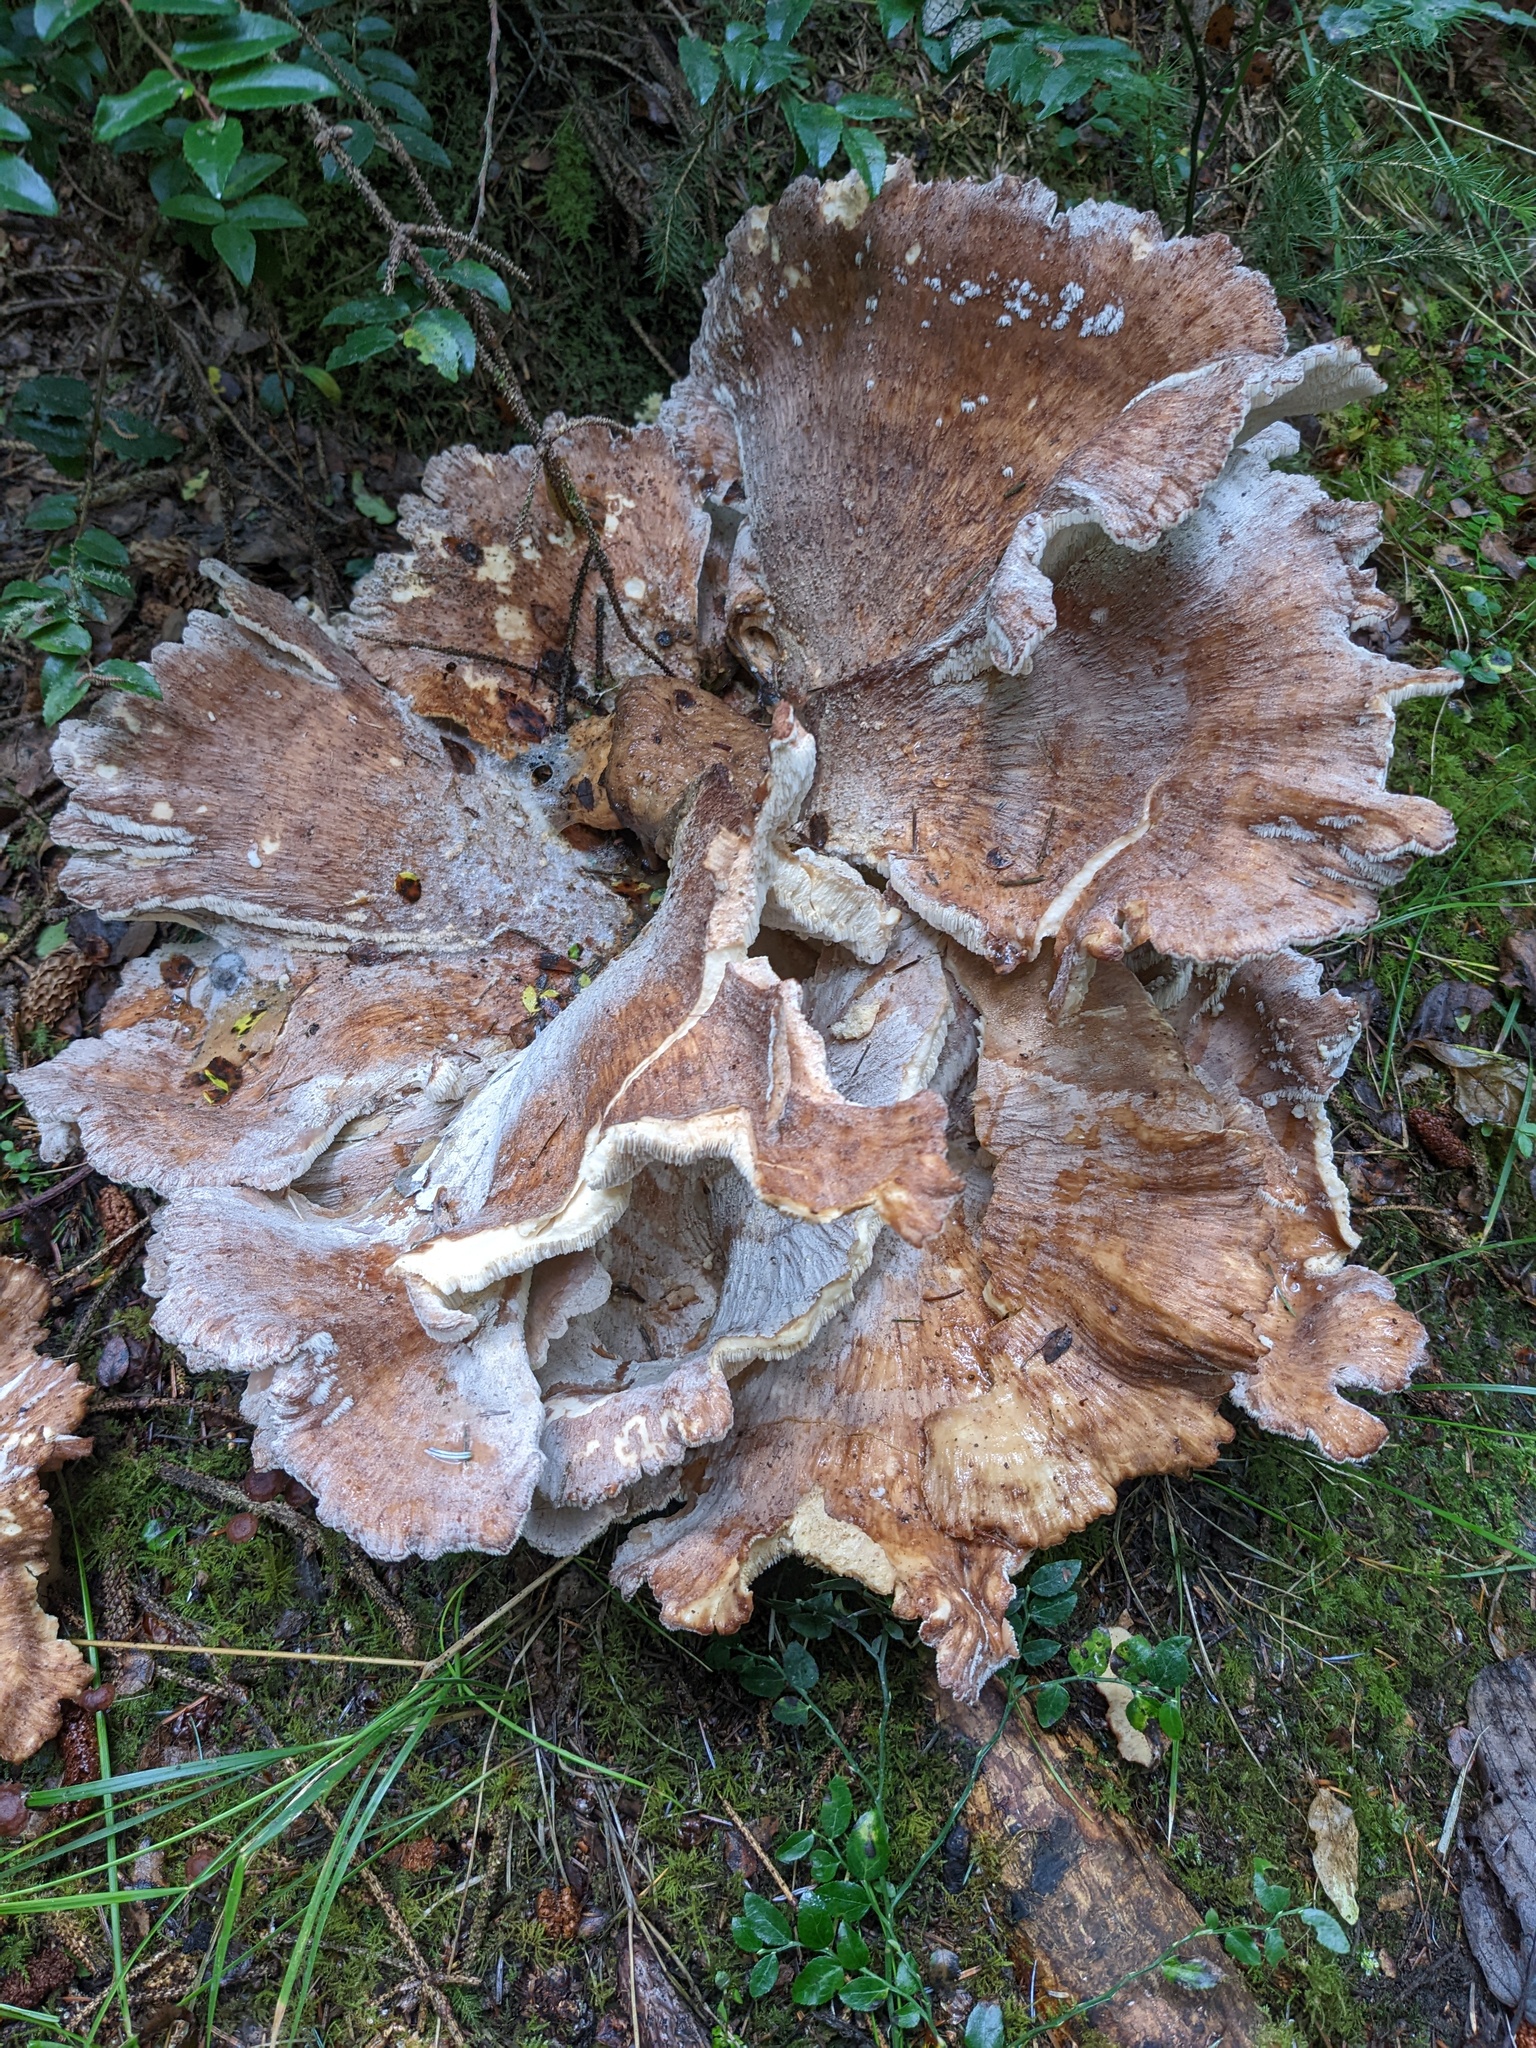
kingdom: Fungi
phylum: Basidiomycota
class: Agaricomycetes
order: Russulales
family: Bondarzewiaceae
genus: Bondarzewia
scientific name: Bondarzewia occidentalis
